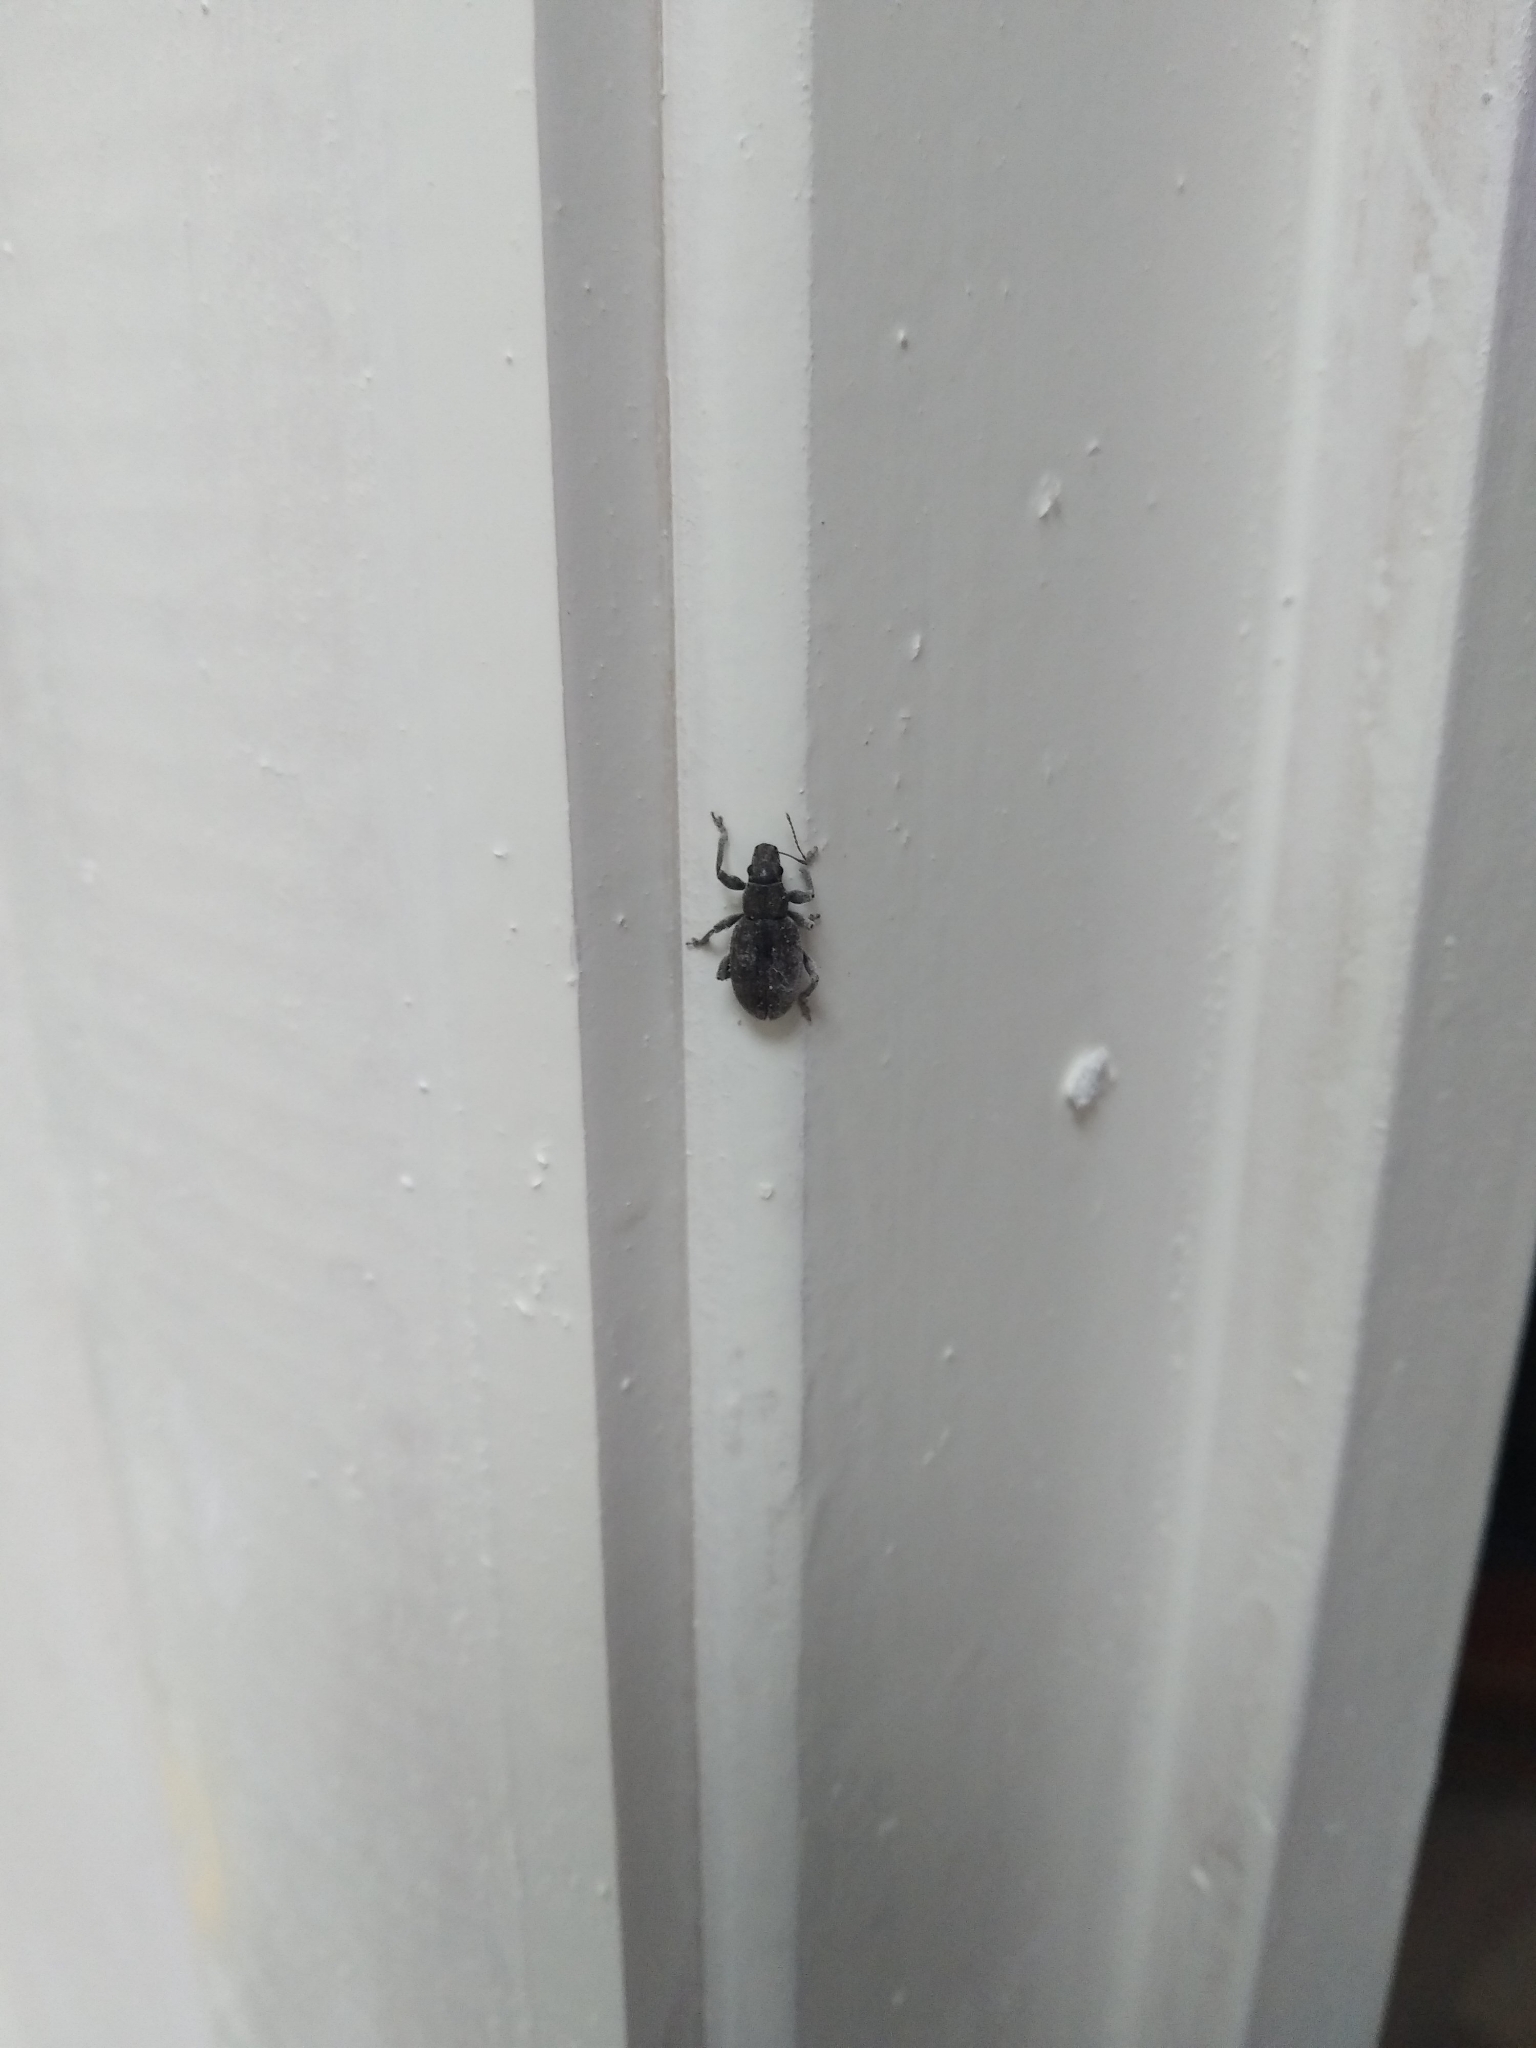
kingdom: Animalia
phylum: Arthropoda
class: Insecta
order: Coleoptera
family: Curculionidae
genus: Brachyderes
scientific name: Brachyderes incanus
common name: Weevil
